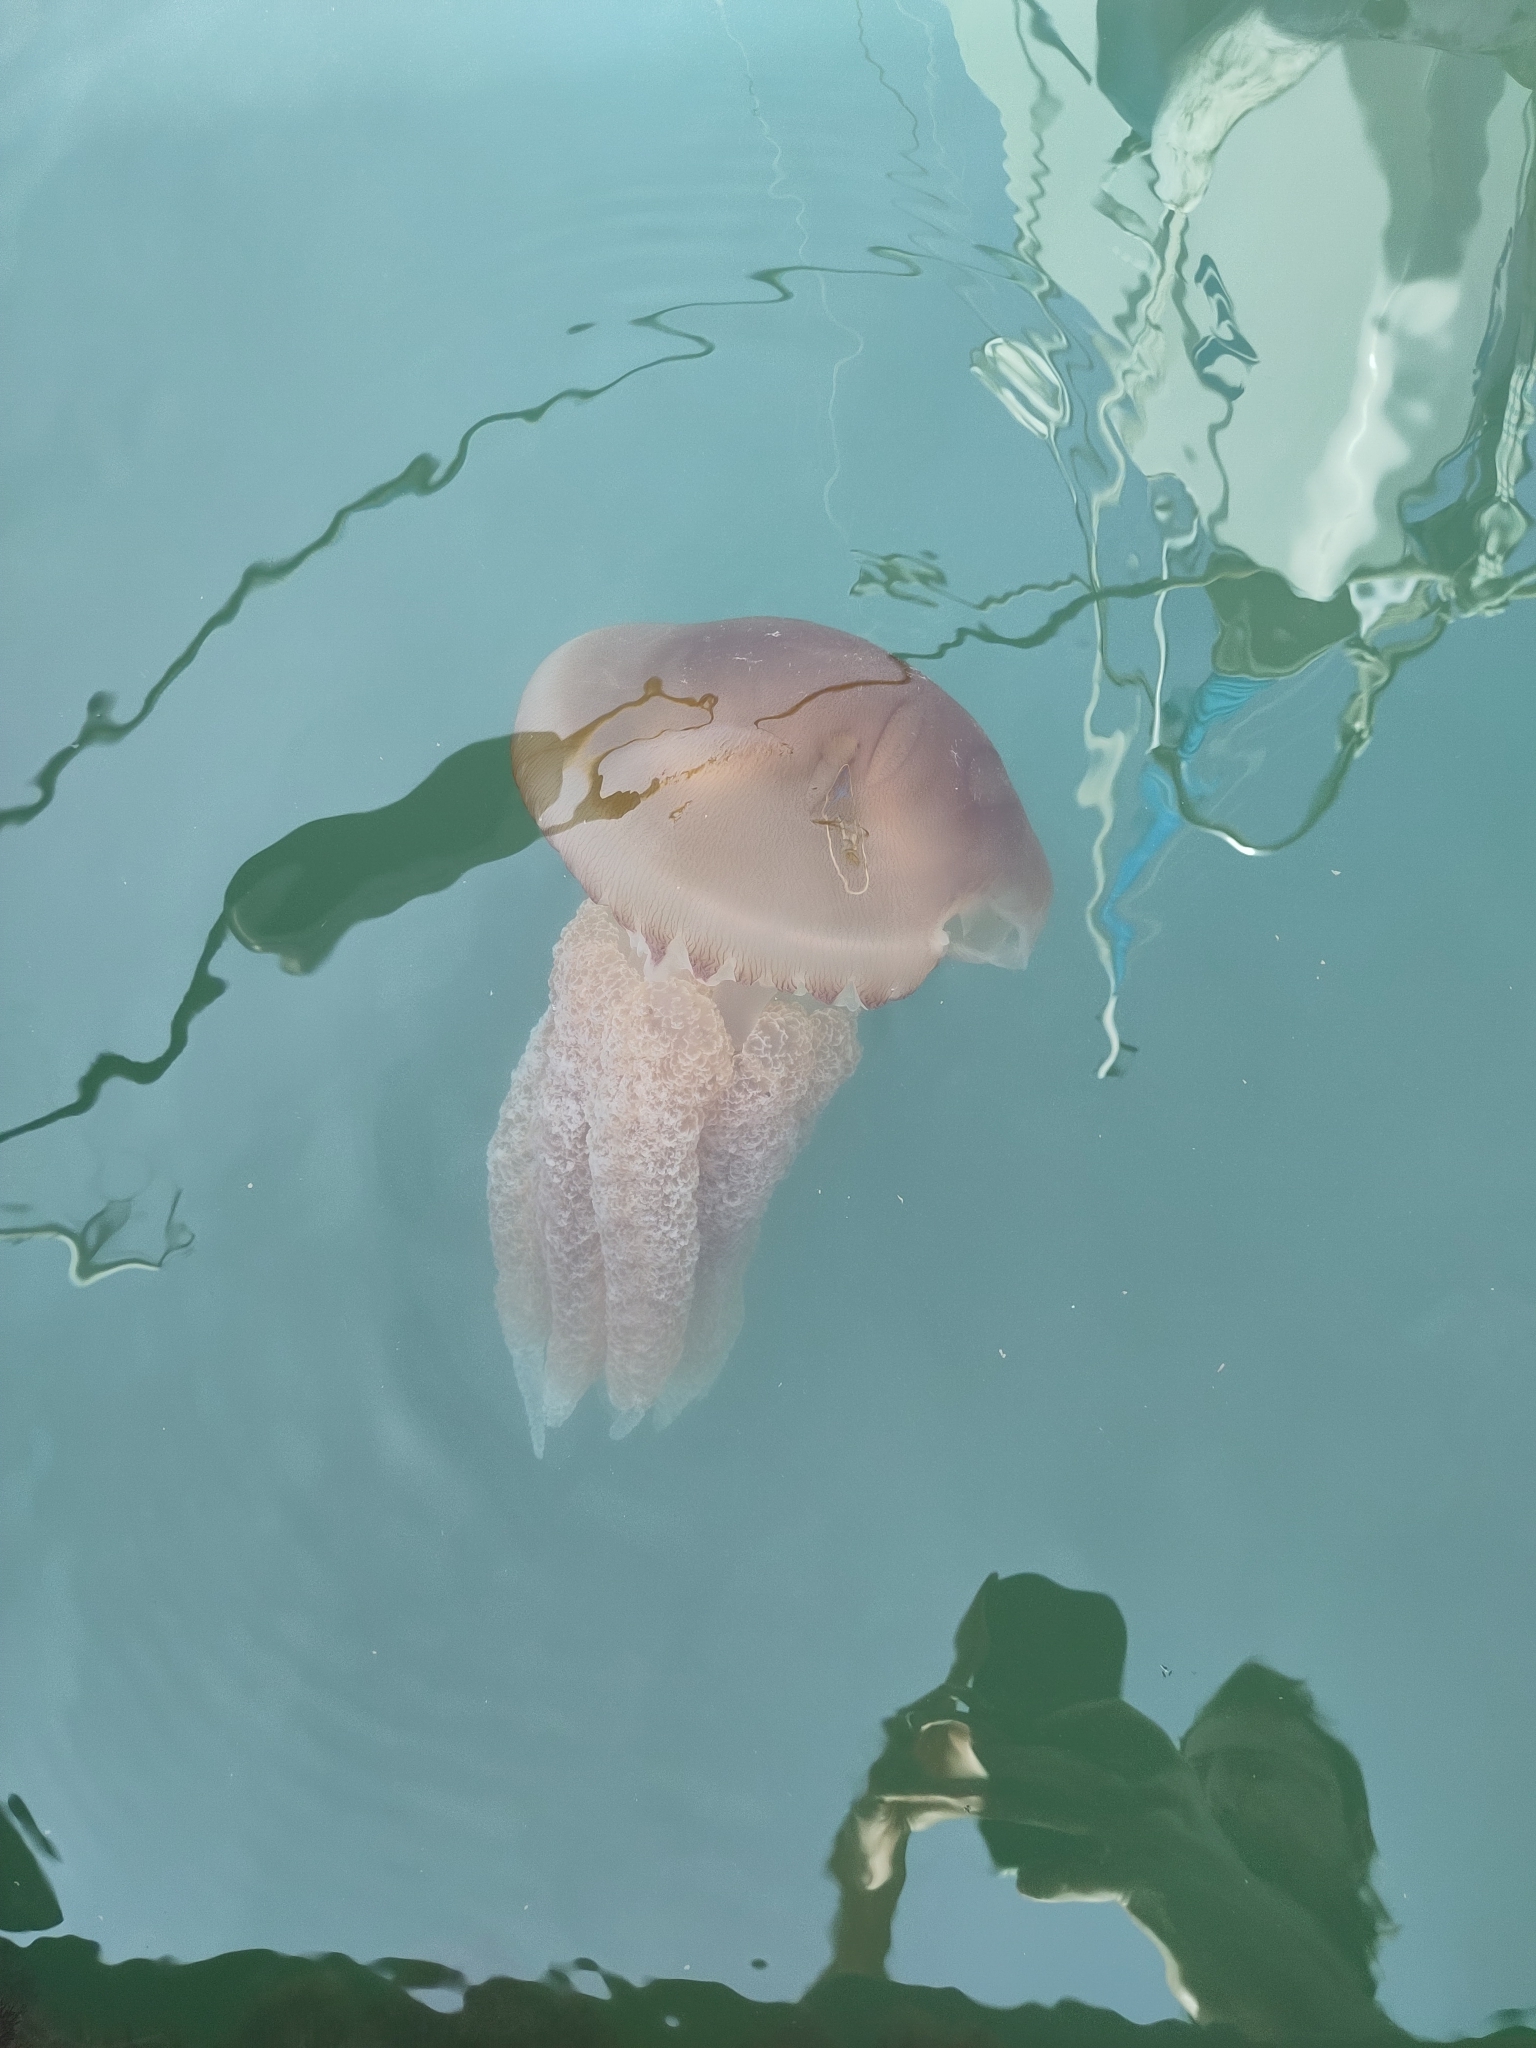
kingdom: Animalia
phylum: Cnidaria
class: Scyphozoa
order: Rhizostomeae
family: Catostylidae
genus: Catostylus
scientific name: Catostylus tagi
